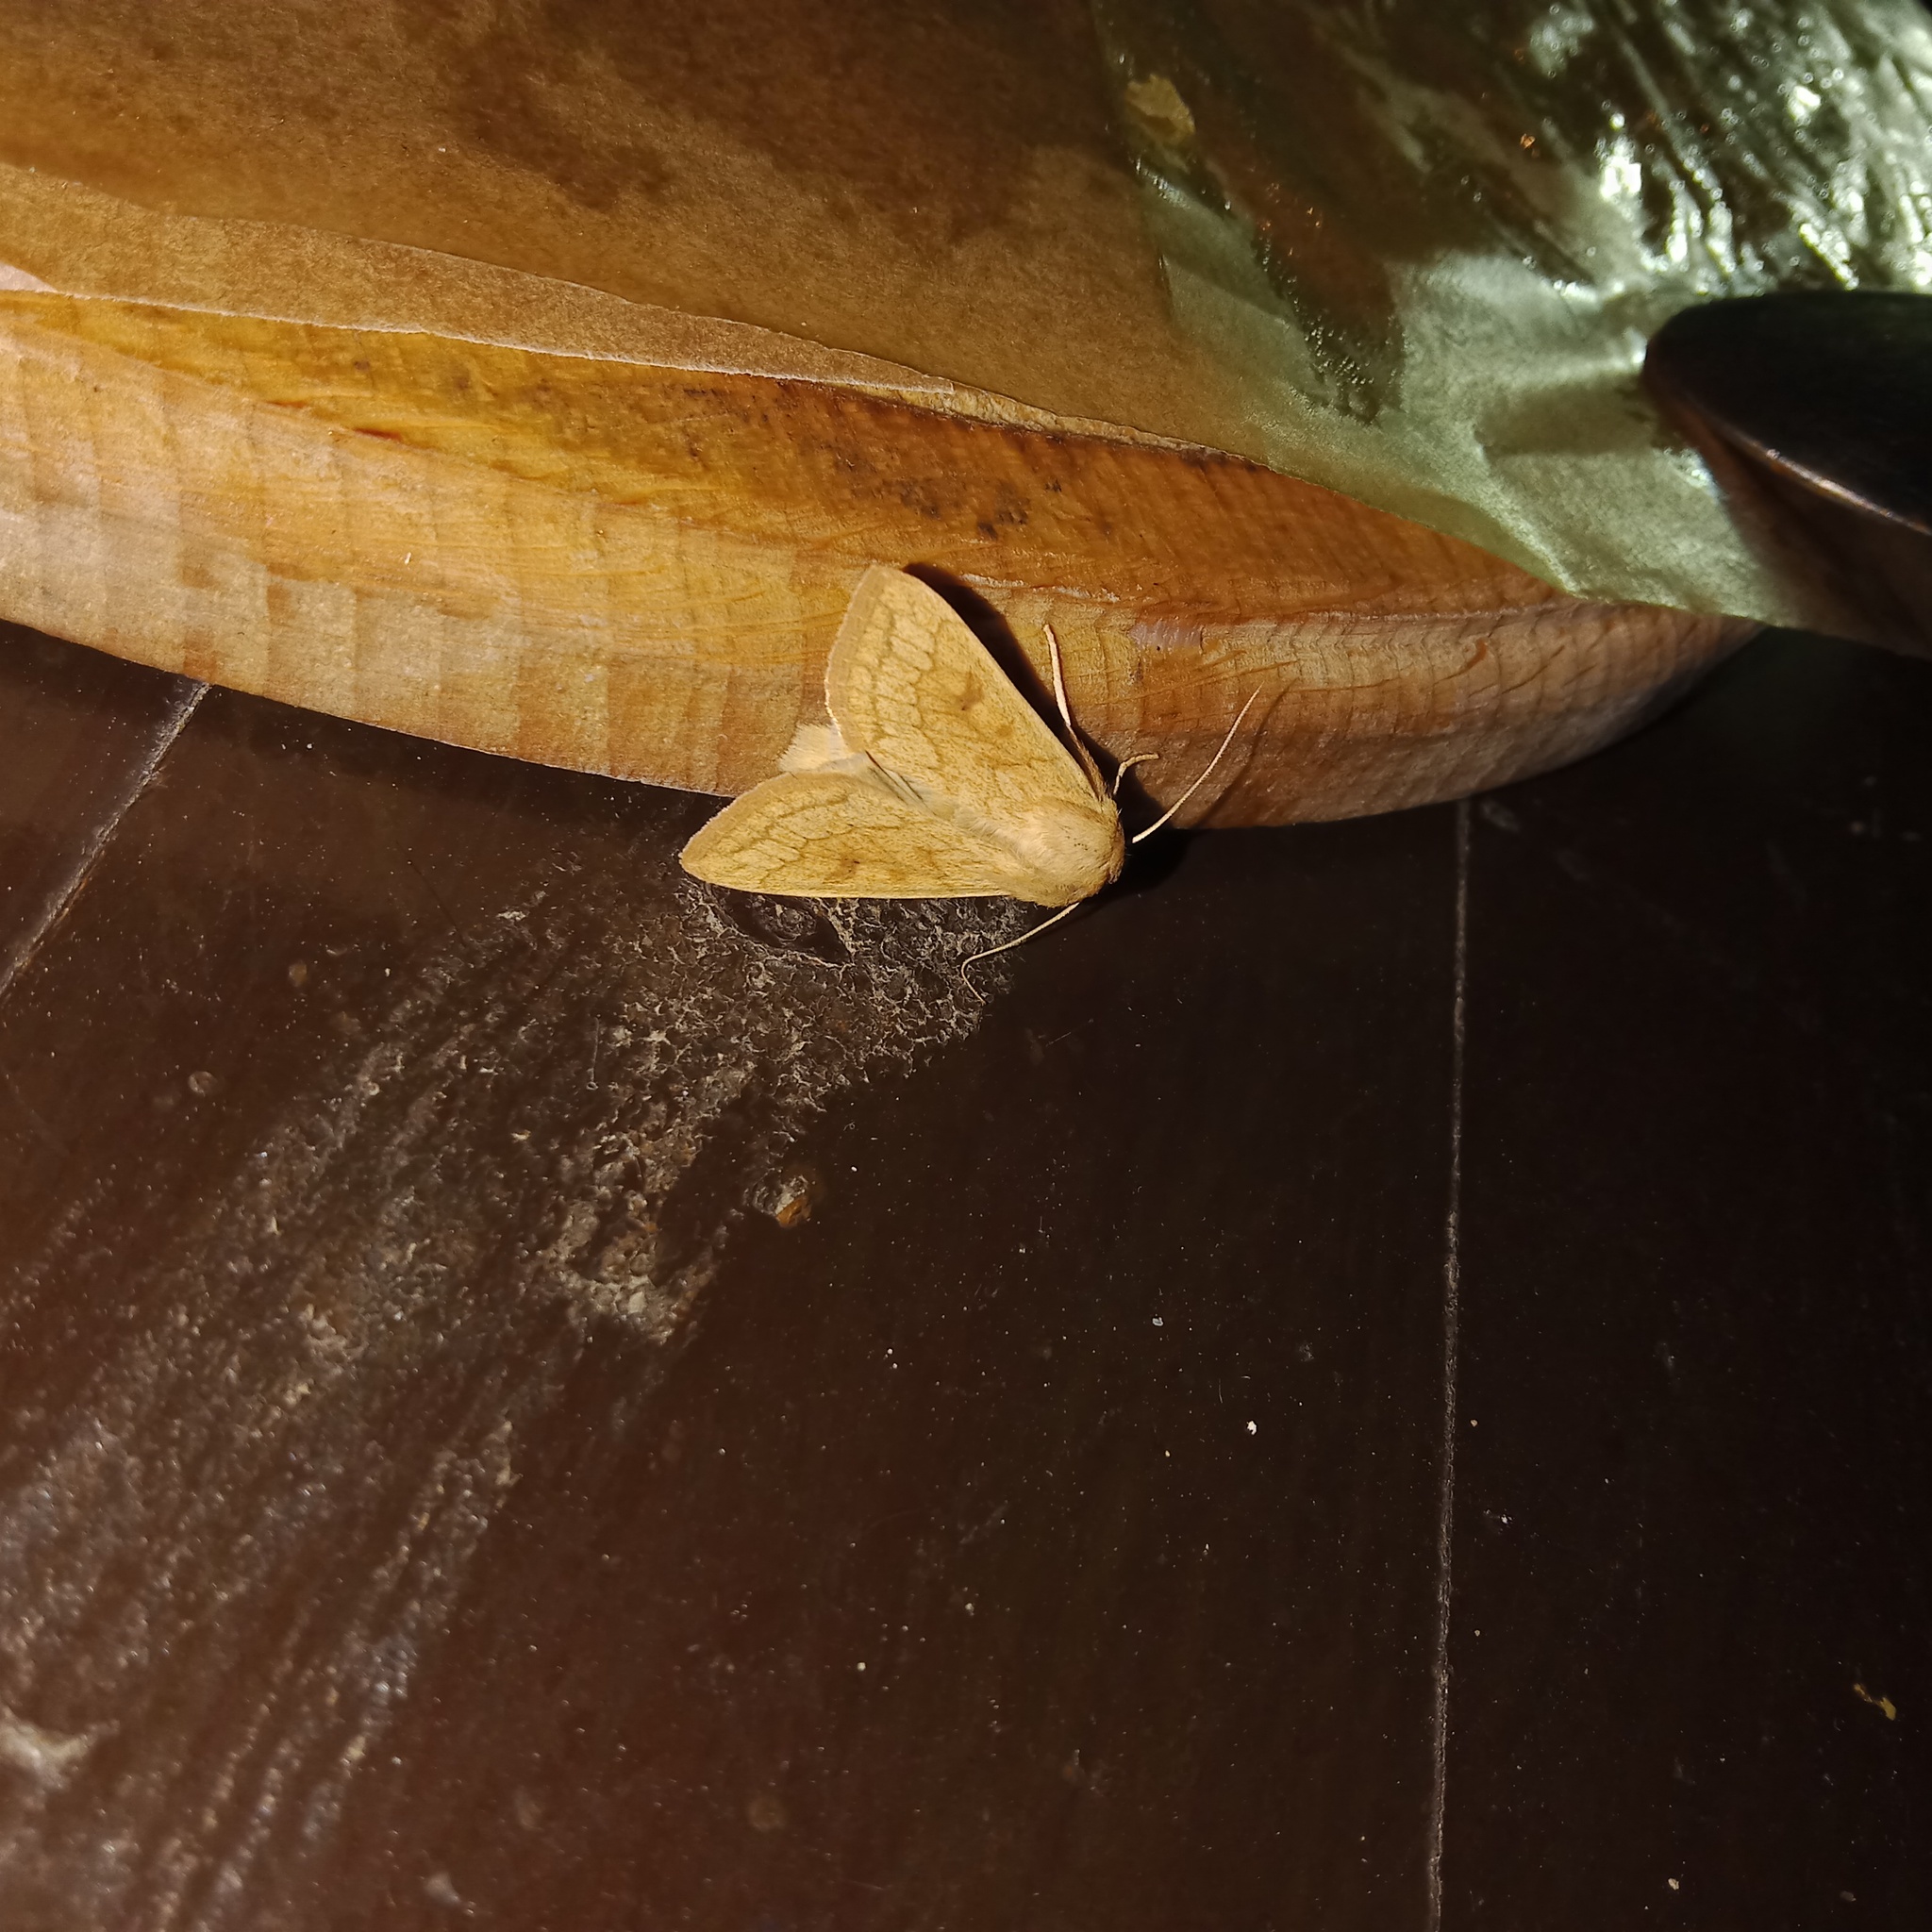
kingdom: Animalia
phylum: Arthropoda
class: Insecta
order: Lepidoptera
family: Noctuidae
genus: Mythimna
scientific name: Mythimna vitellina
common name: Delicate
